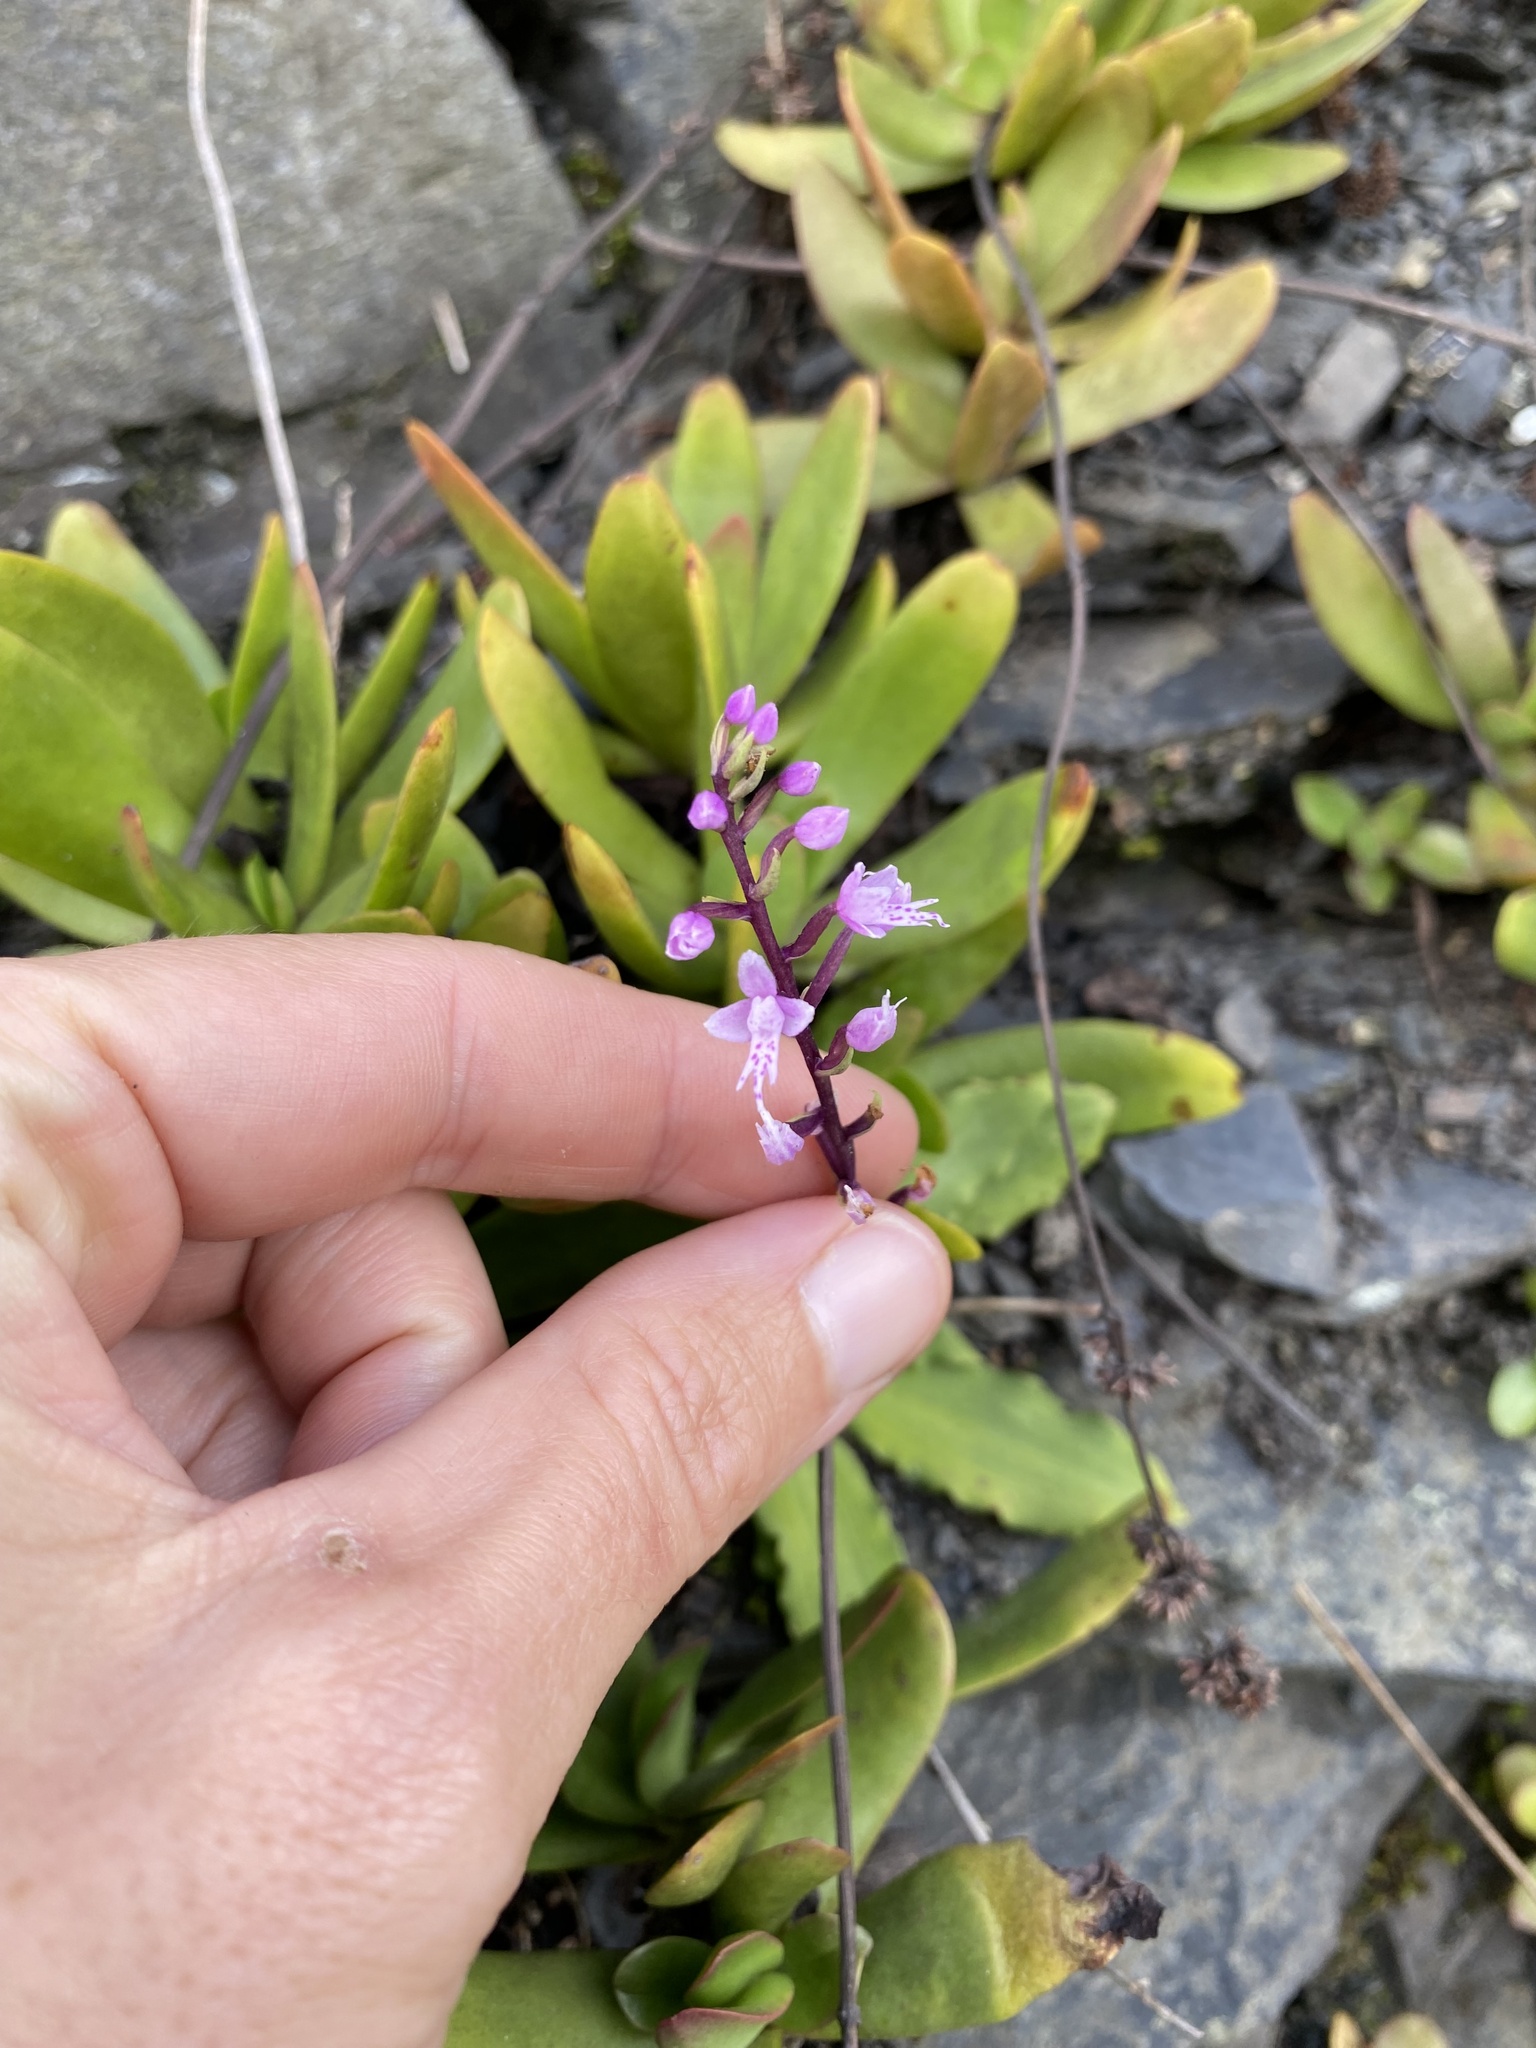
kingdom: Plantae
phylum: Tracheophyta
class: Liliopsida
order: Asparagales
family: Orchidaceae
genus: Stenoglottis
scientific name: Stenoglottis fimbriata
